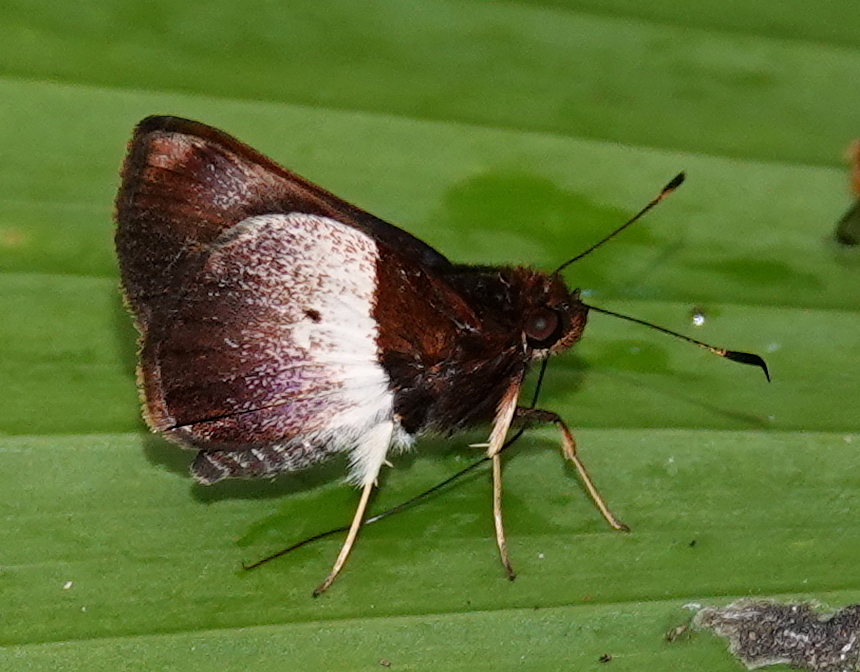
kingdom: Animalia
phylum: Arthropoda
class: Insecta
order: Lepidoptera
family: Hesperiidae
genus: Moeris
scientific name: Moeris remus
